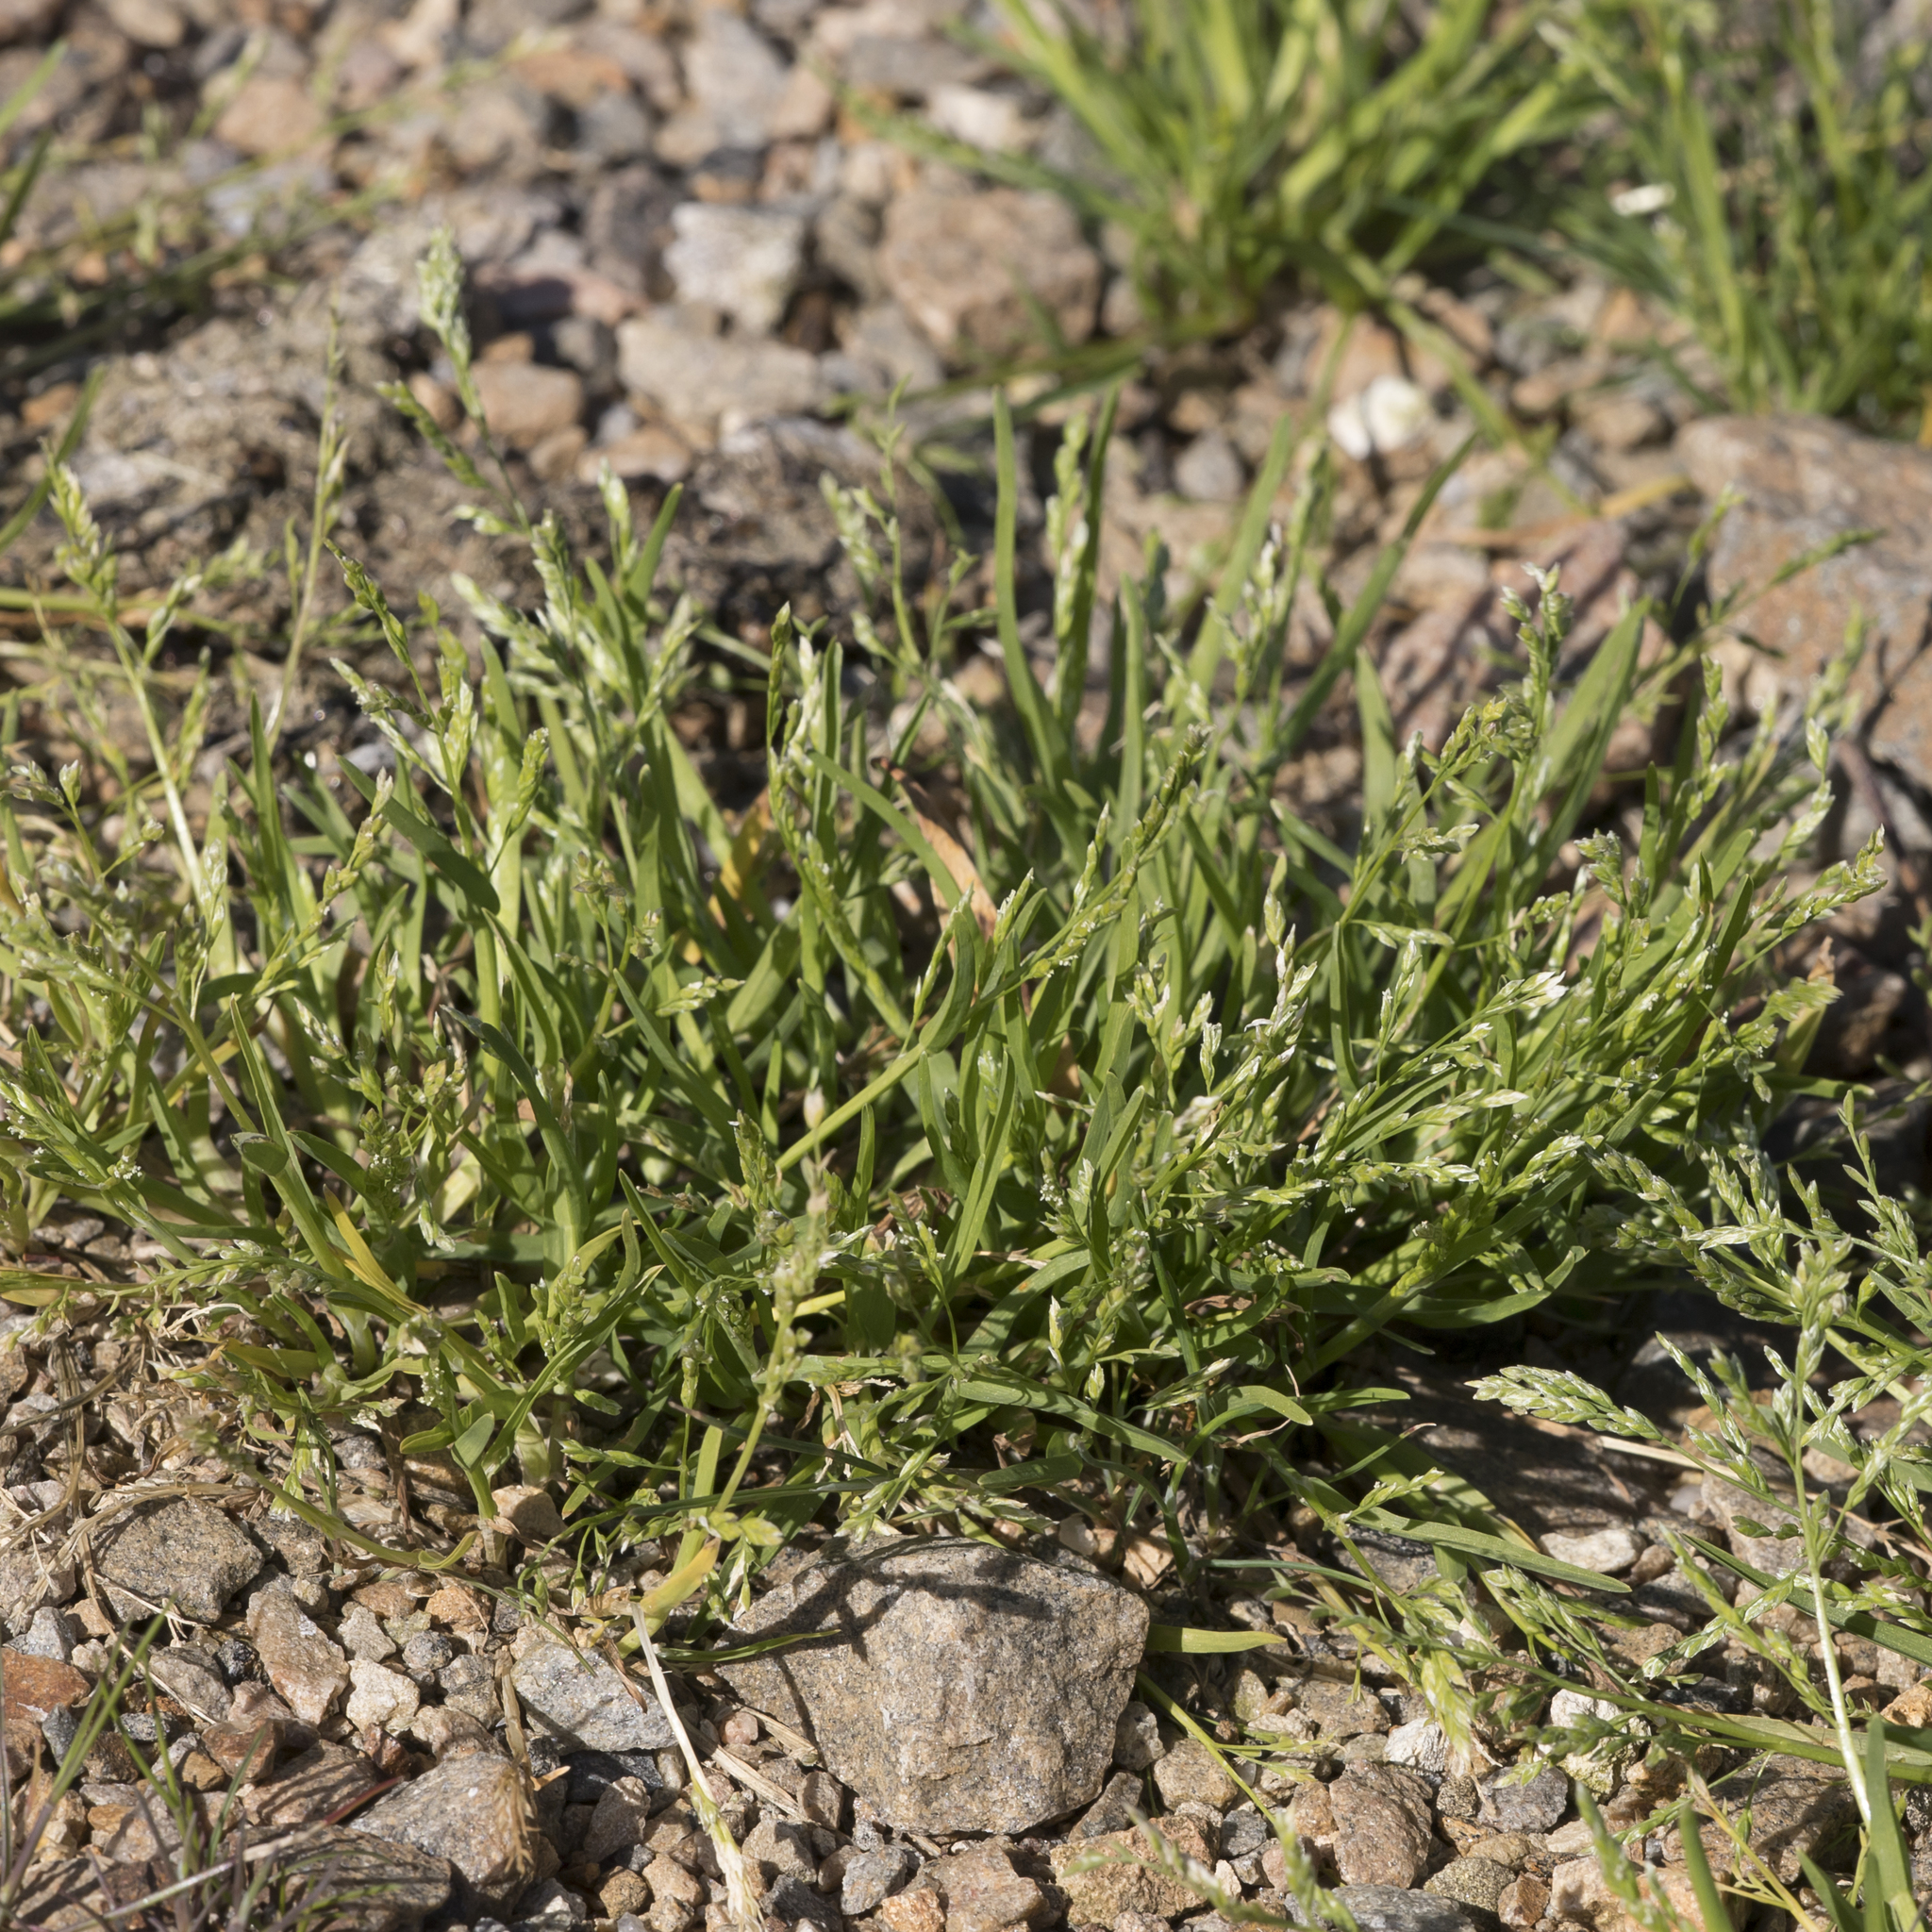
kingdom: Plantae
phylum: Tracheophyta
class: Liliopsida
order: Poales
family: Poaceae
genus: Poa
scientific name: Poa annua
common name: Annual bluegrass
